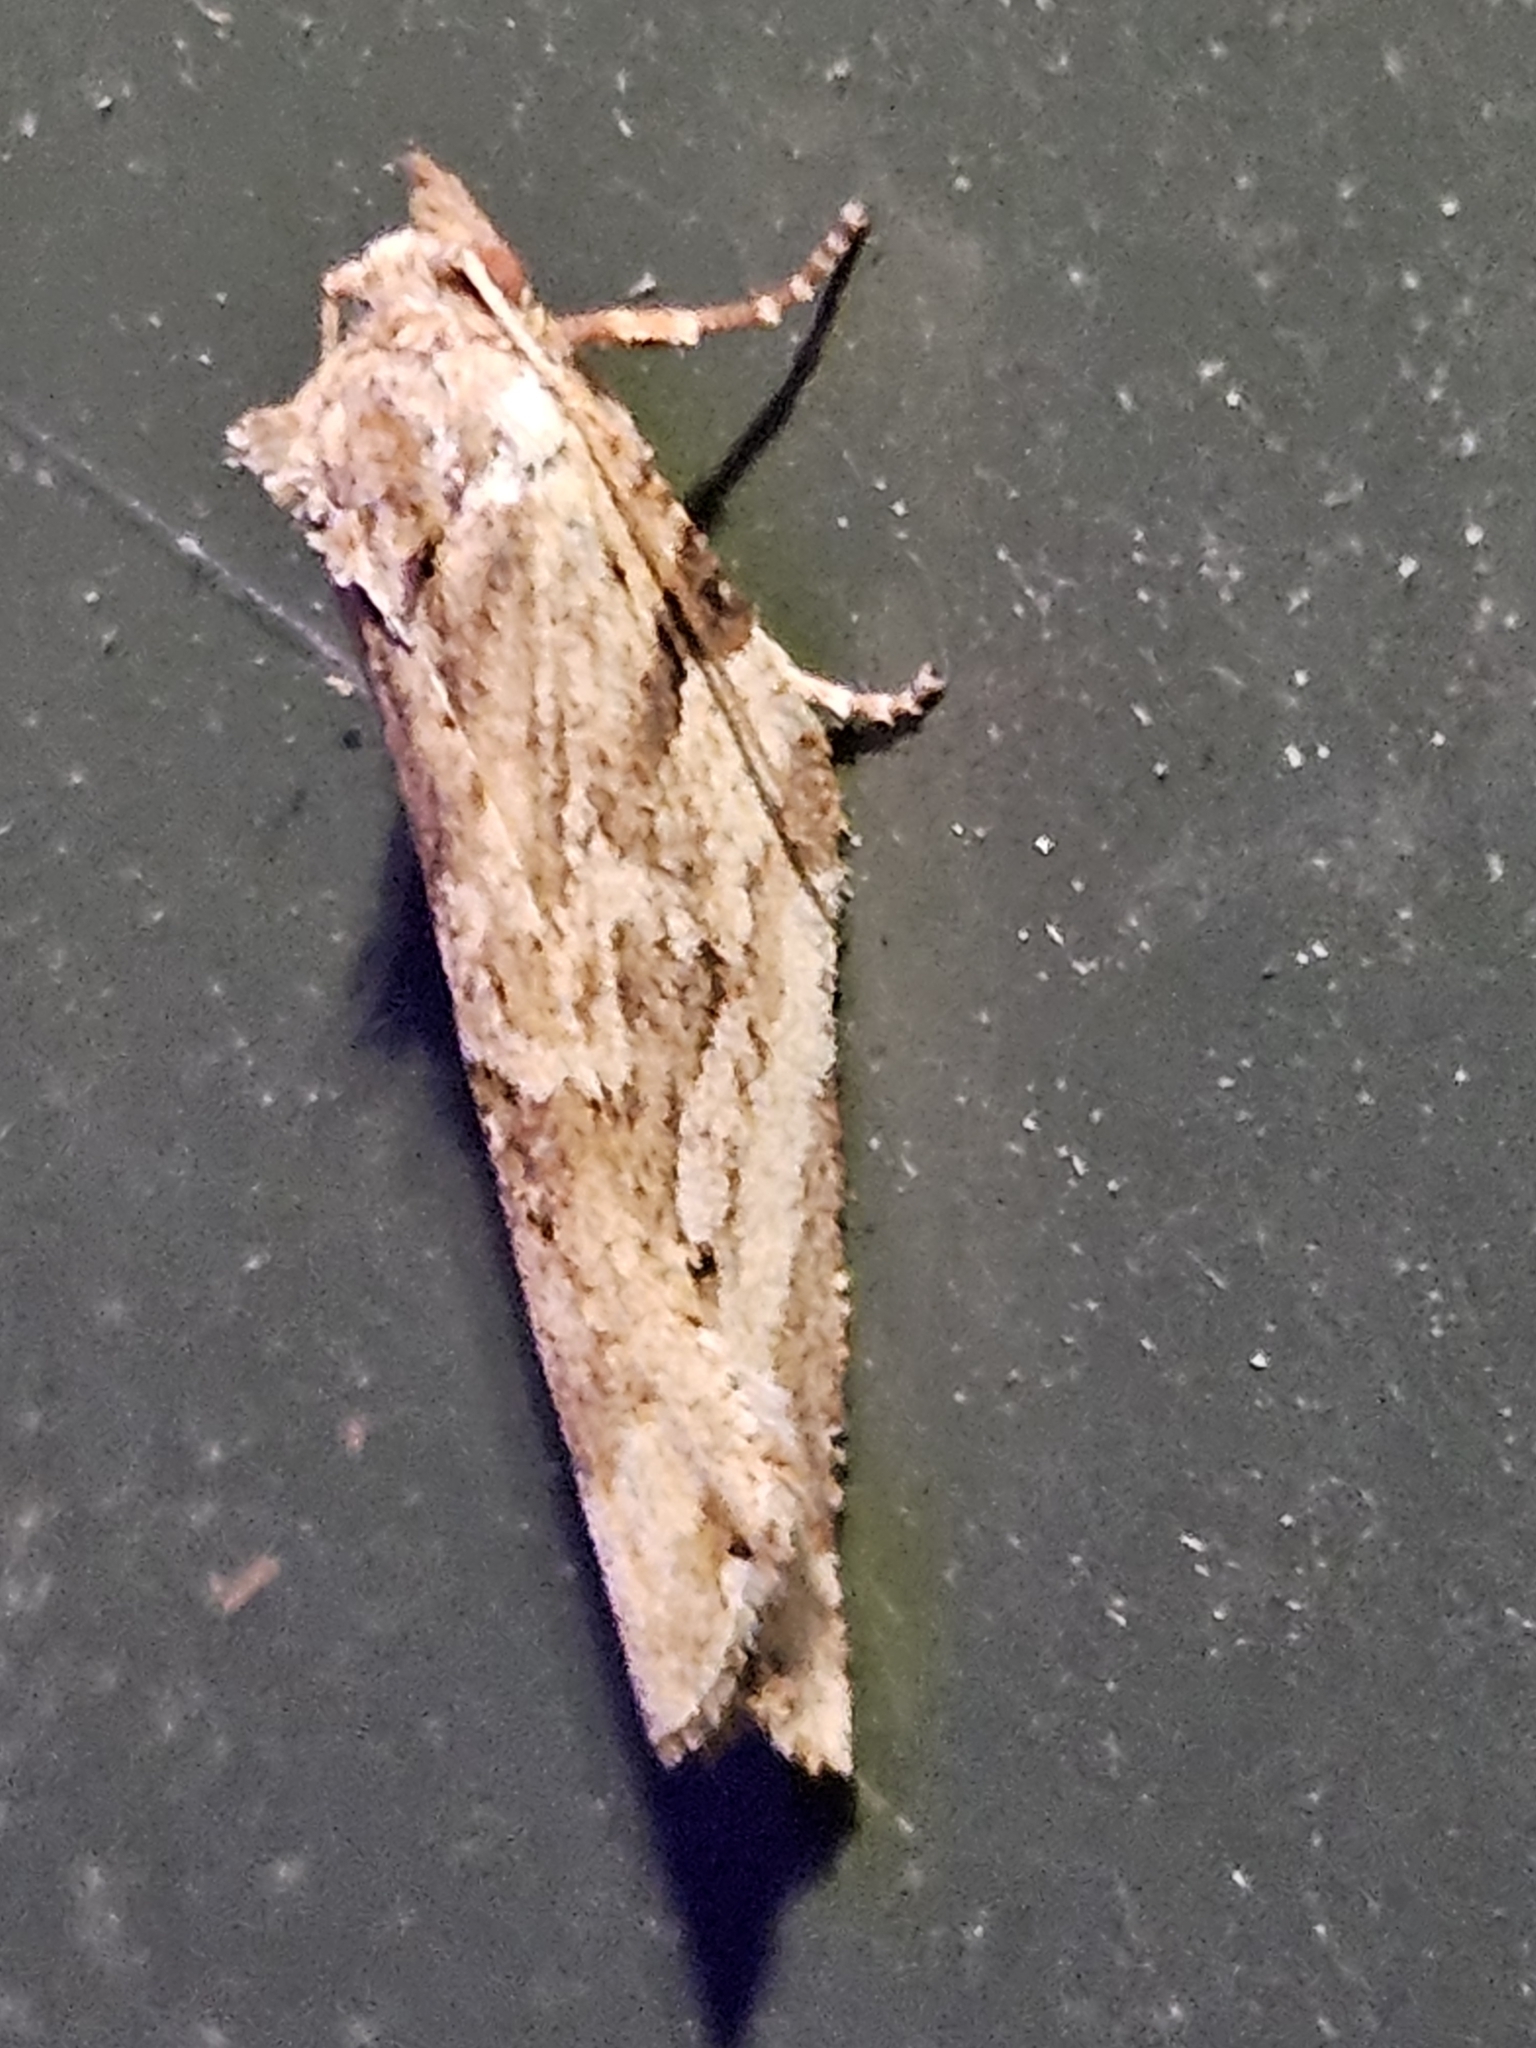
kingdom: Animalia
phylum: Arthropoda
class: Insecta
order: Lepidoptera
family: Tortricidae
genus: Epalxiphora
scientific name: Epalxiphora axenana
